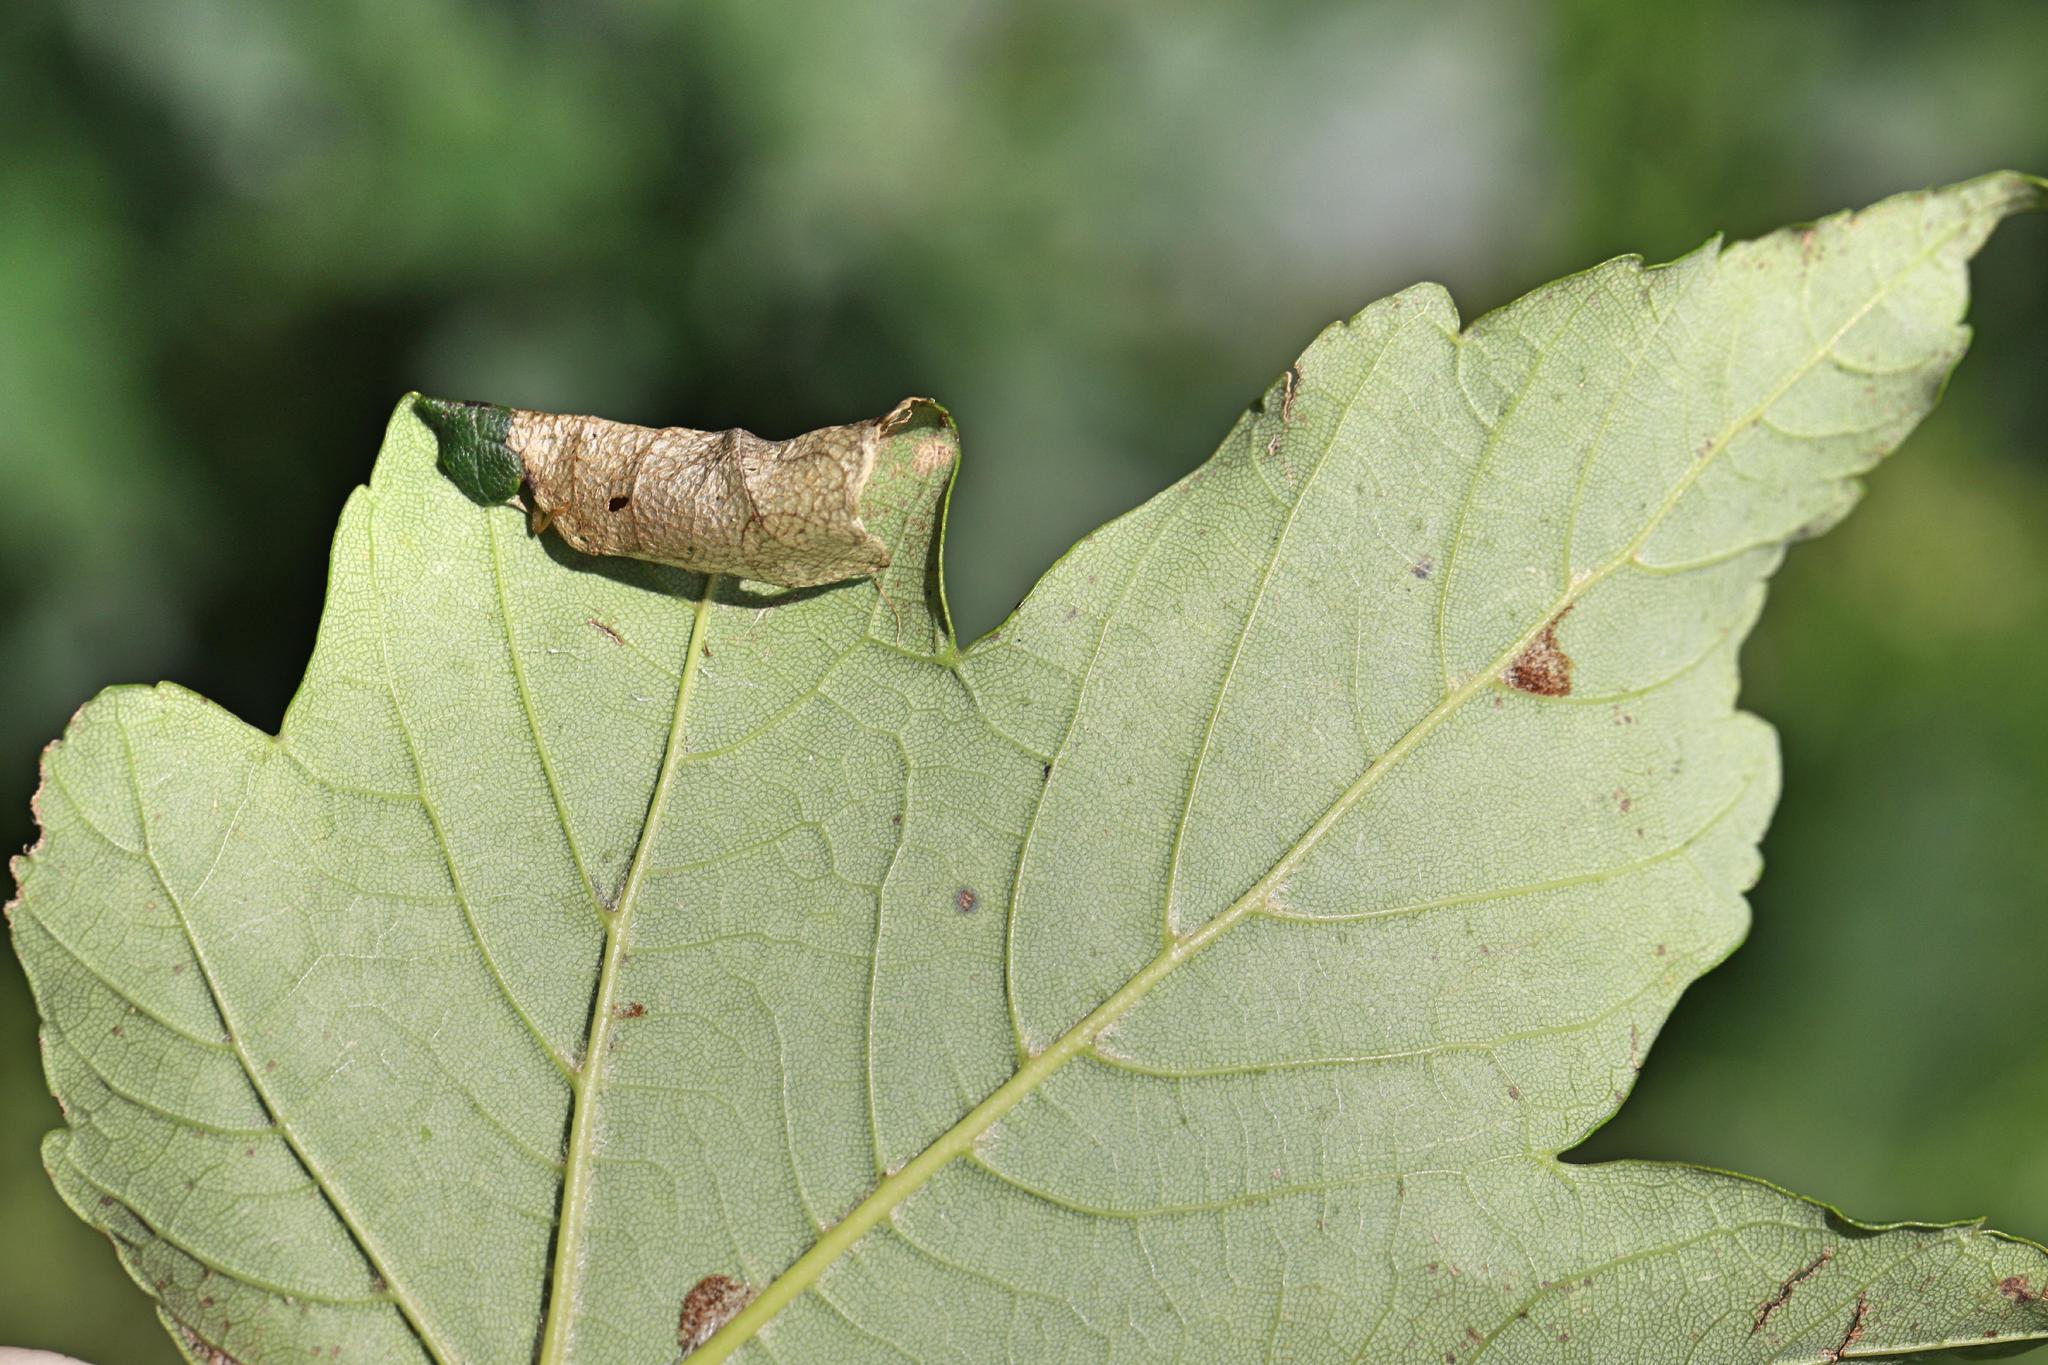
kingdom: Animalia
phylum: Arthropoda
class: Insecta
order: Lepidoptera
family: Gracillariidae
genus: Caloptilia
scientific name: Caloptilia rufipennella
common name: Small red slender
